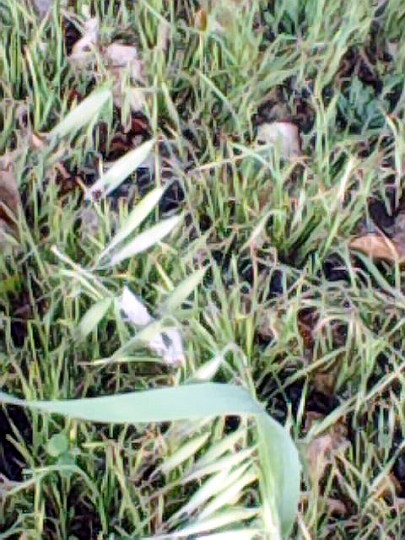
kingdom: Plantae
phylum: Tracheophyta
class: Liliopsida
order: Poales
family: Poaceae
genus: Avena
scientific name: Avena sativa
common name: Oat
